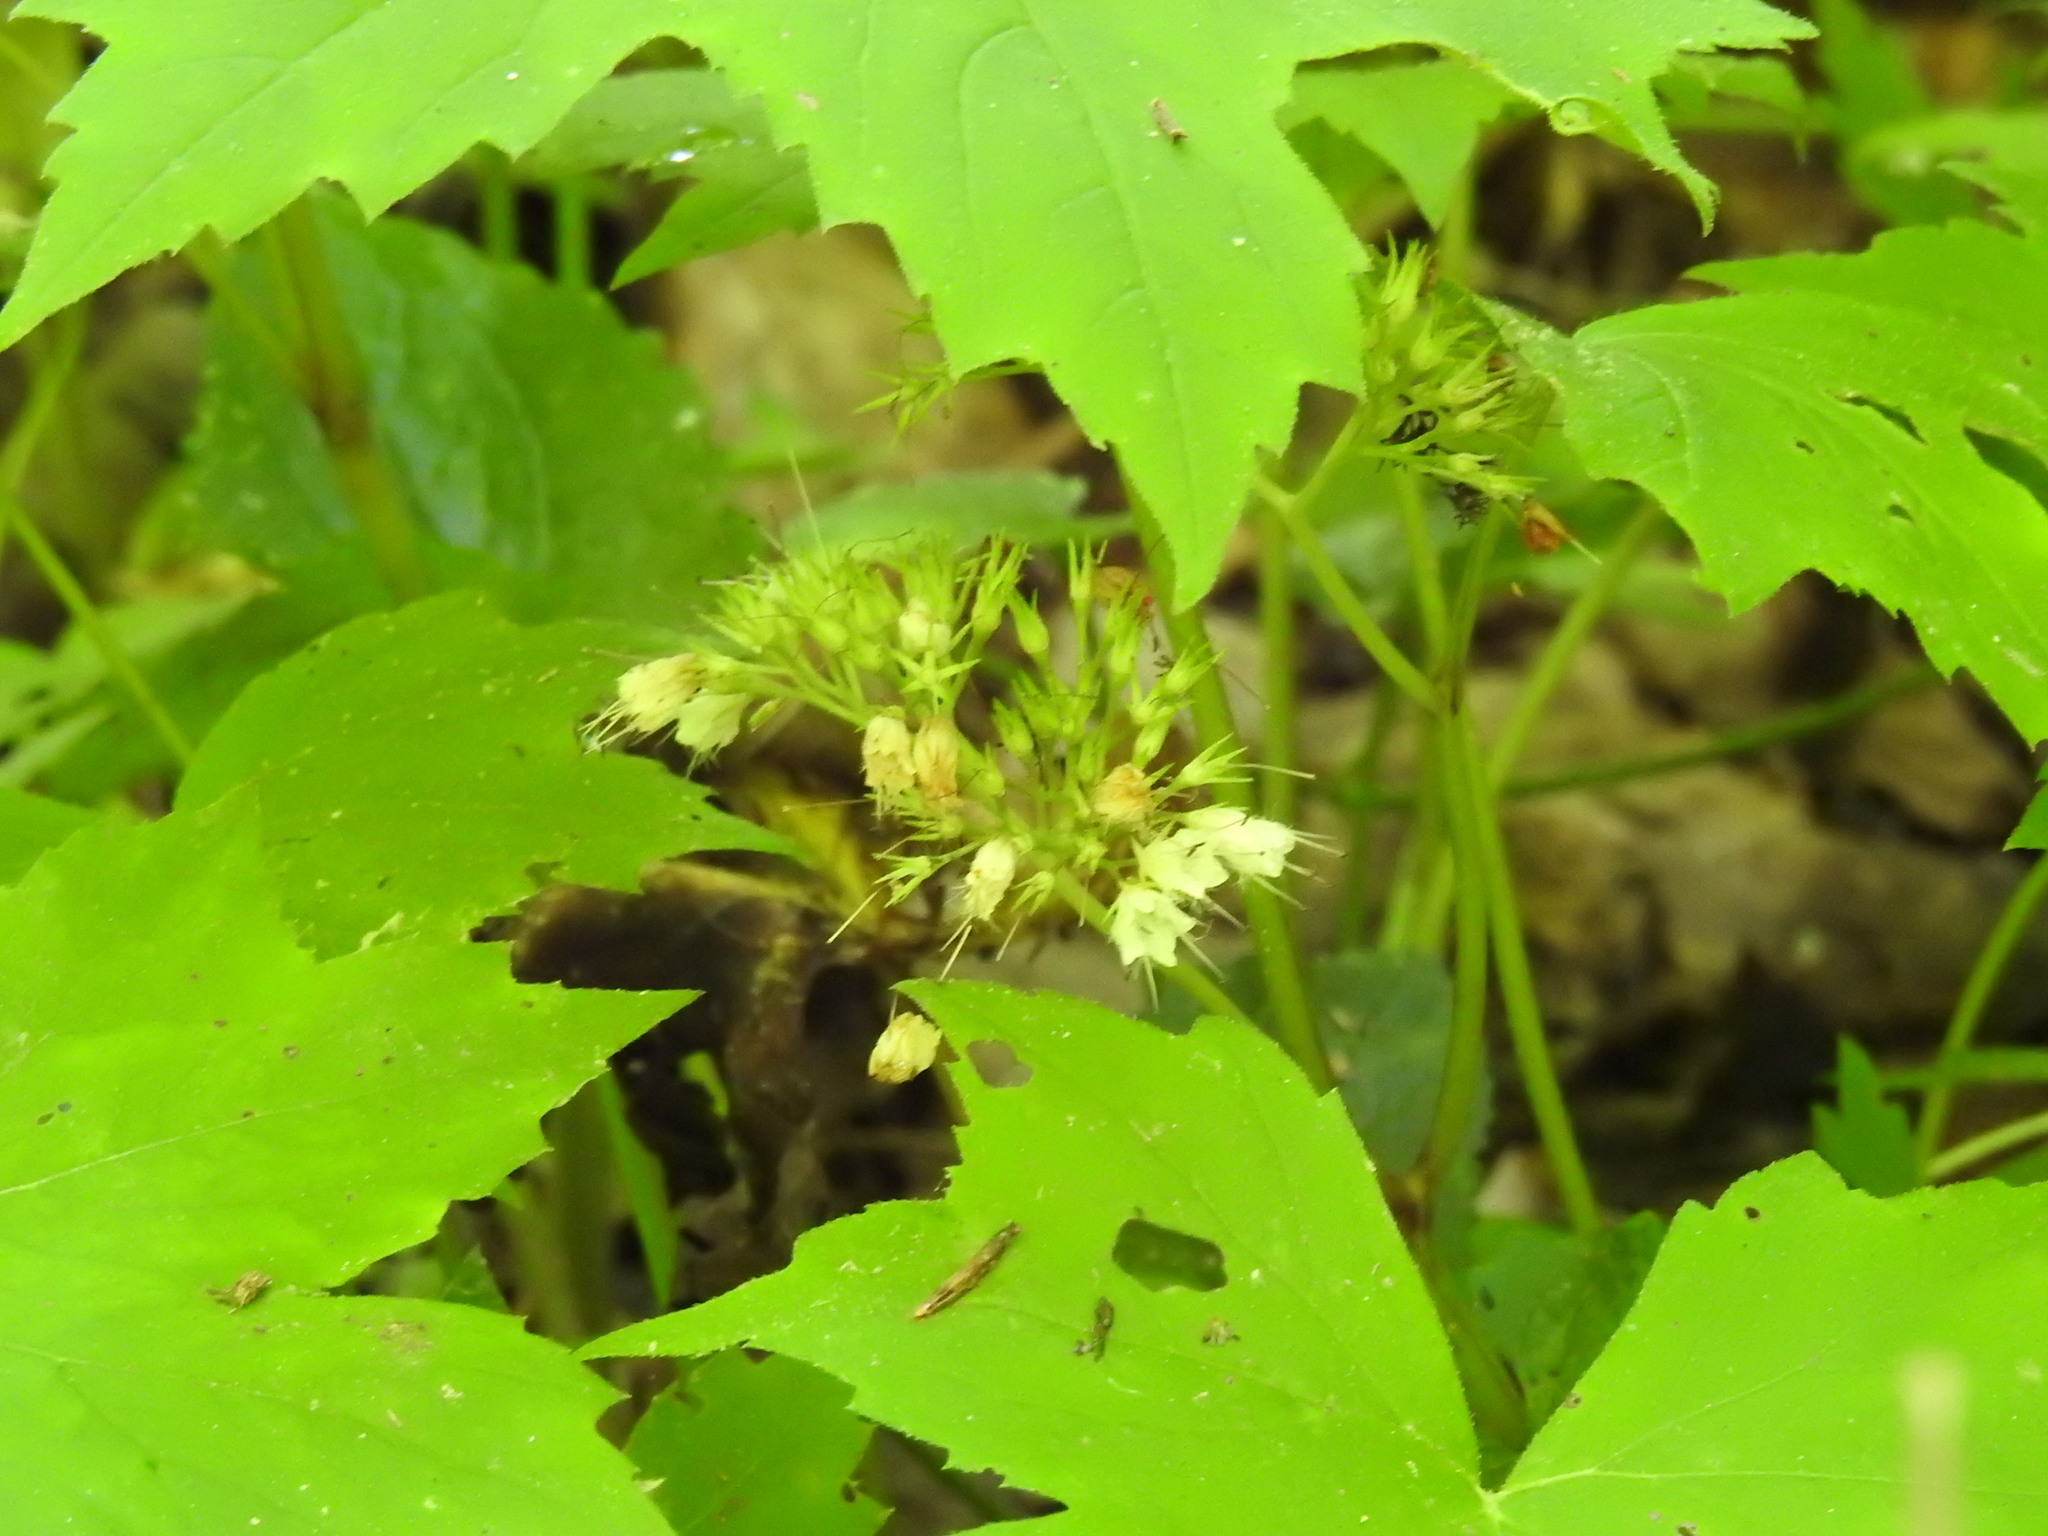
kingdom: Plantae
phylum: Tracheophyta
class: Magnoliopsida
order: Boraginales
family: Hydrophyllaceae
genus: Hydrophyllum
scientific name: Hydrophyllum canadense
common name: Canada waterleaf
